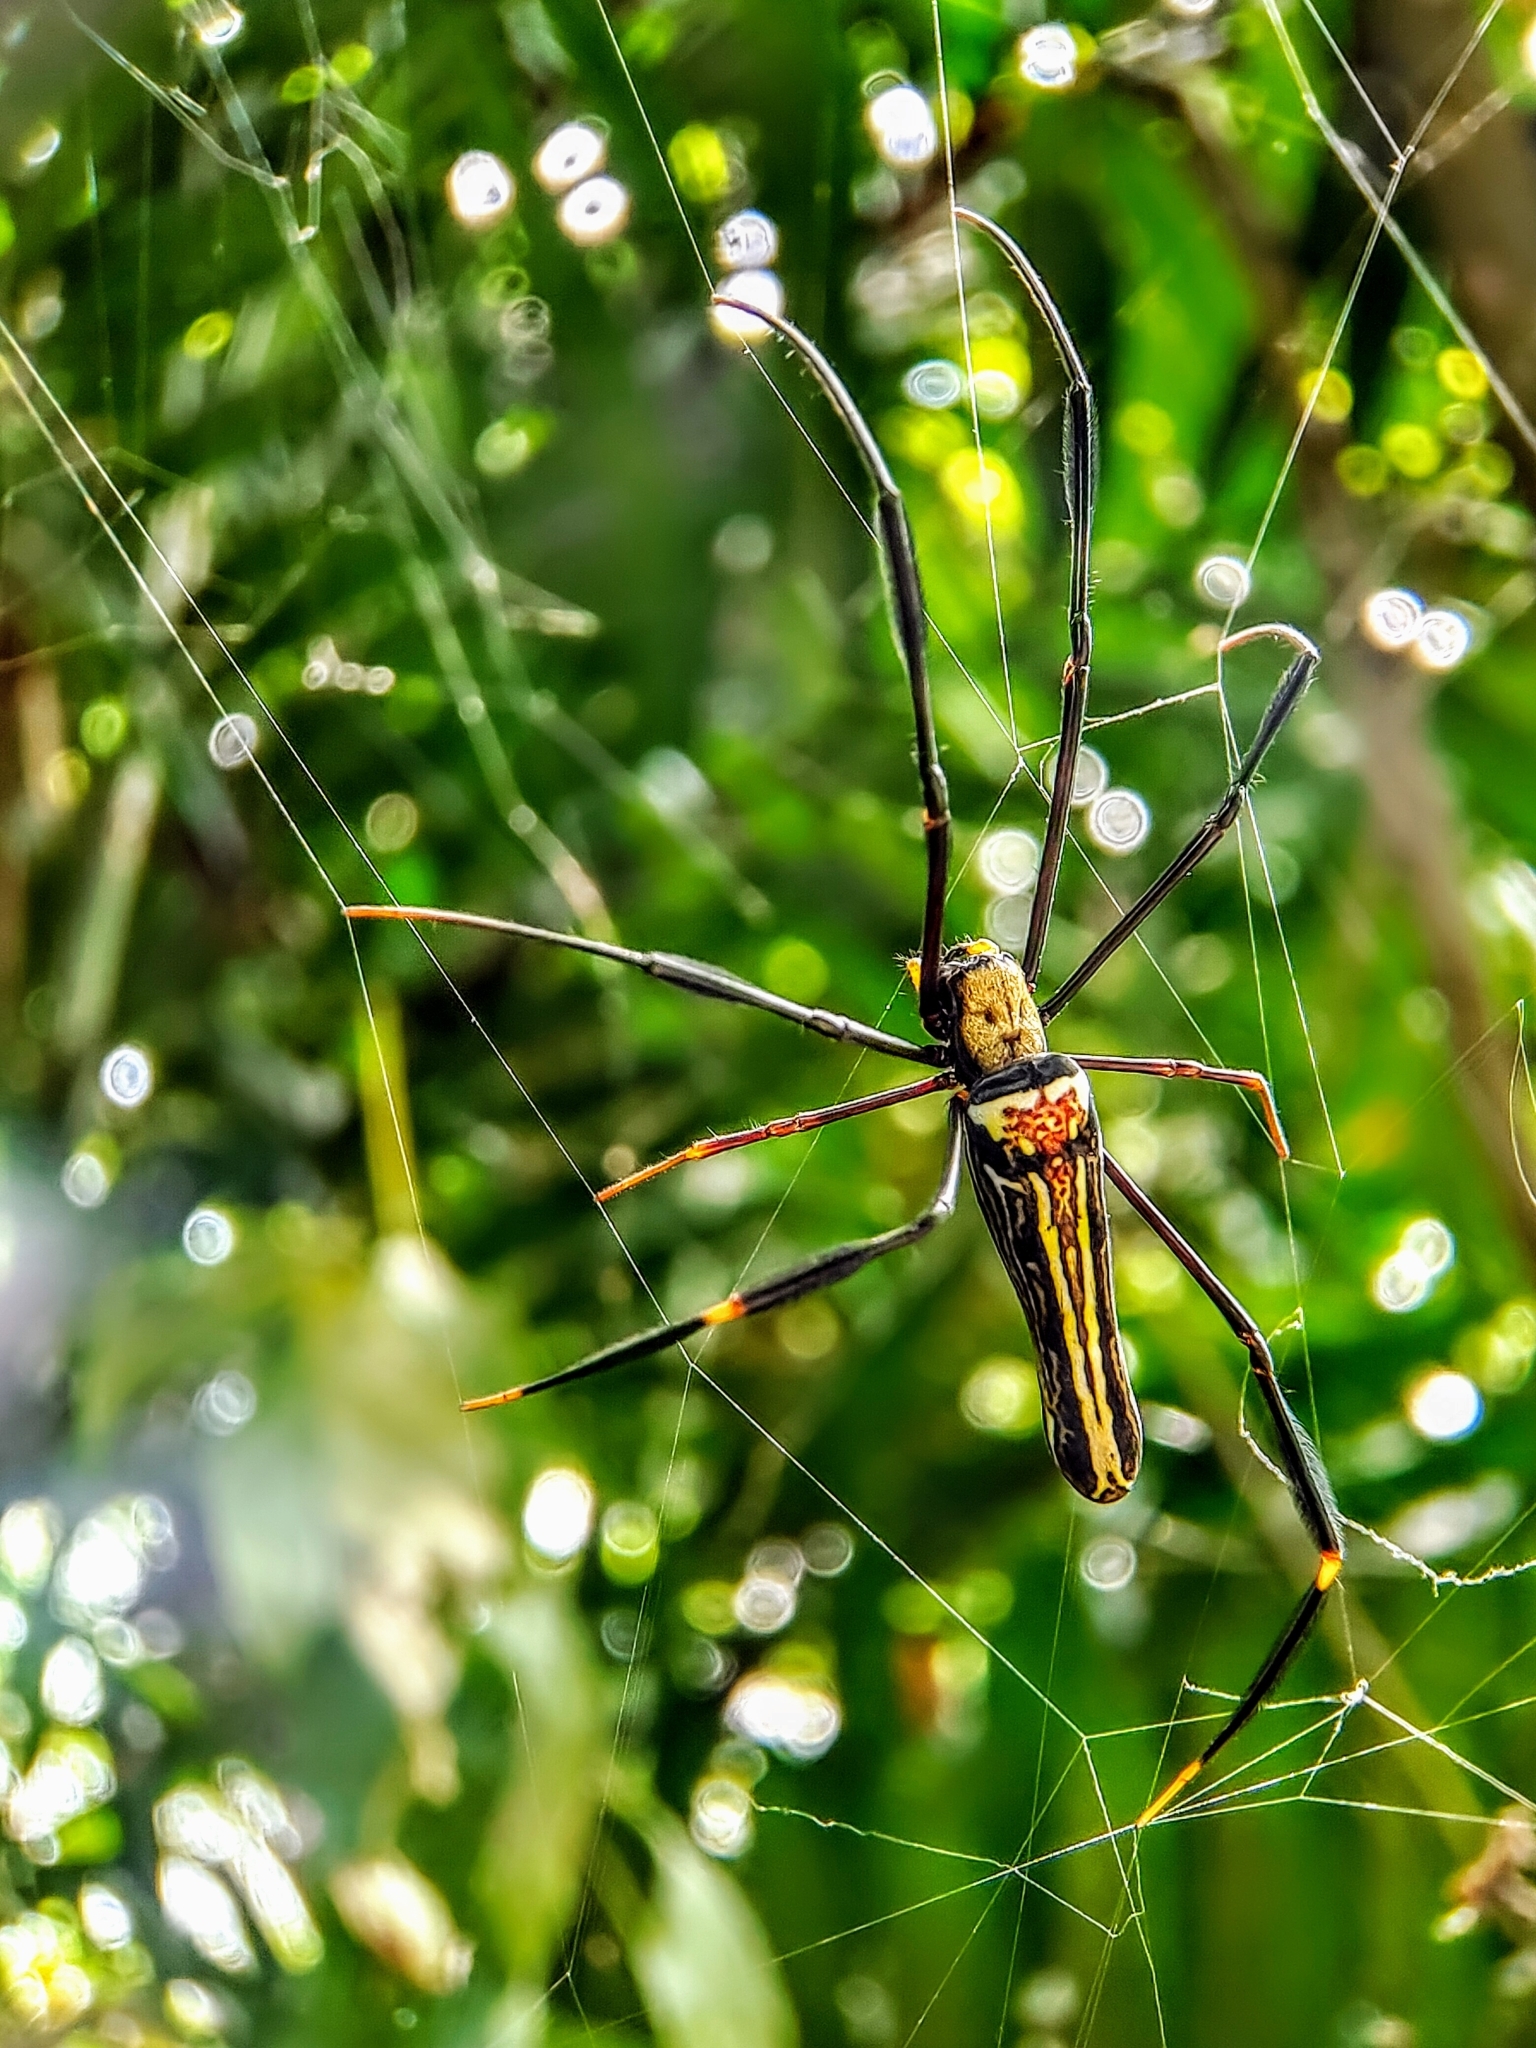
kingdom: Animalia
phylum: Arthropoda
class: Arachnida
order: Araneae
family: Araneidae
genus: Nephila
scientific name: Nephila pilipes
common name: Giant golden orb weaver
